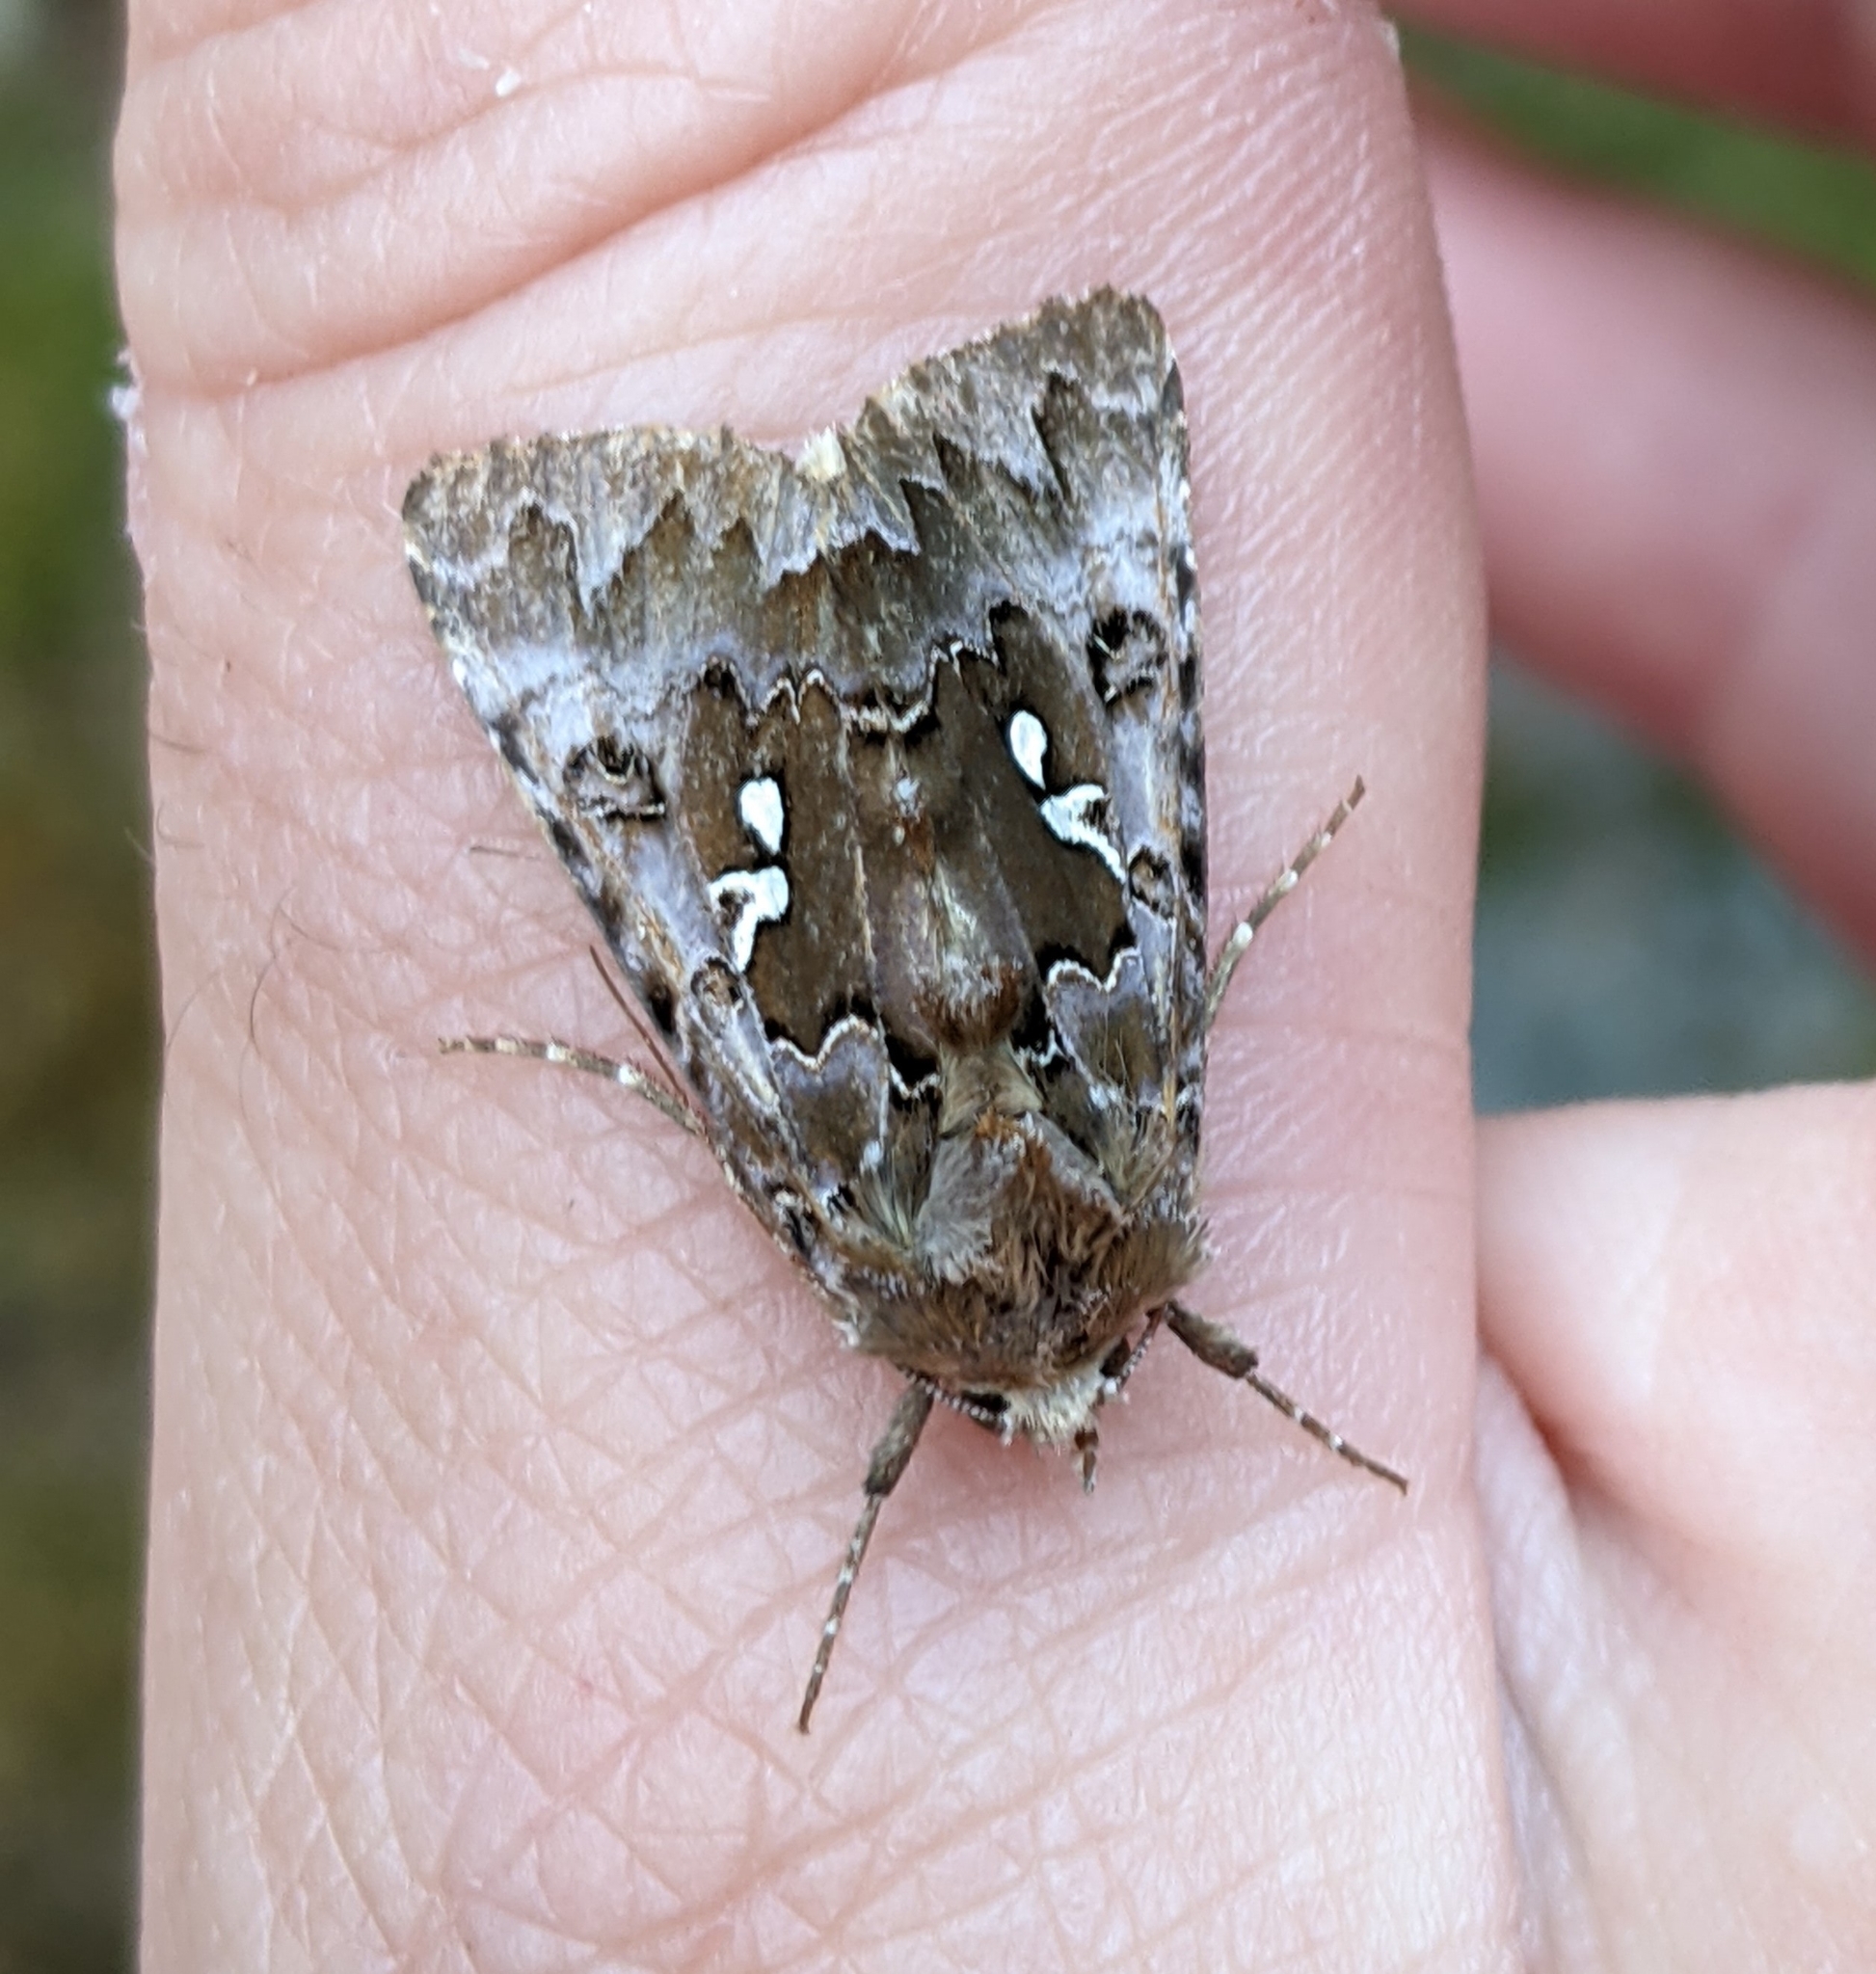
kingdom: Animalia
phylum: Arthropoda
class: Insecta
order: Lepidoptera
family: Noctuidae
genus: Autographa
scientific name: Autographa corusca
